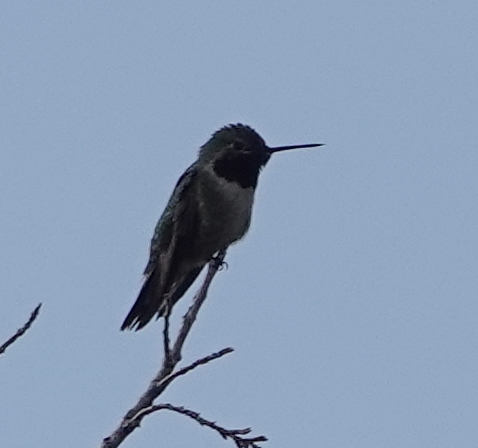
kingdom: Animalia
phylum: Chordata
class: Aves
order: Apodiformes
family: Trochilidae
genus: Selasphorus
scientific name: Selasphorus platycercus
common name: Broad-tailed hummingbird
